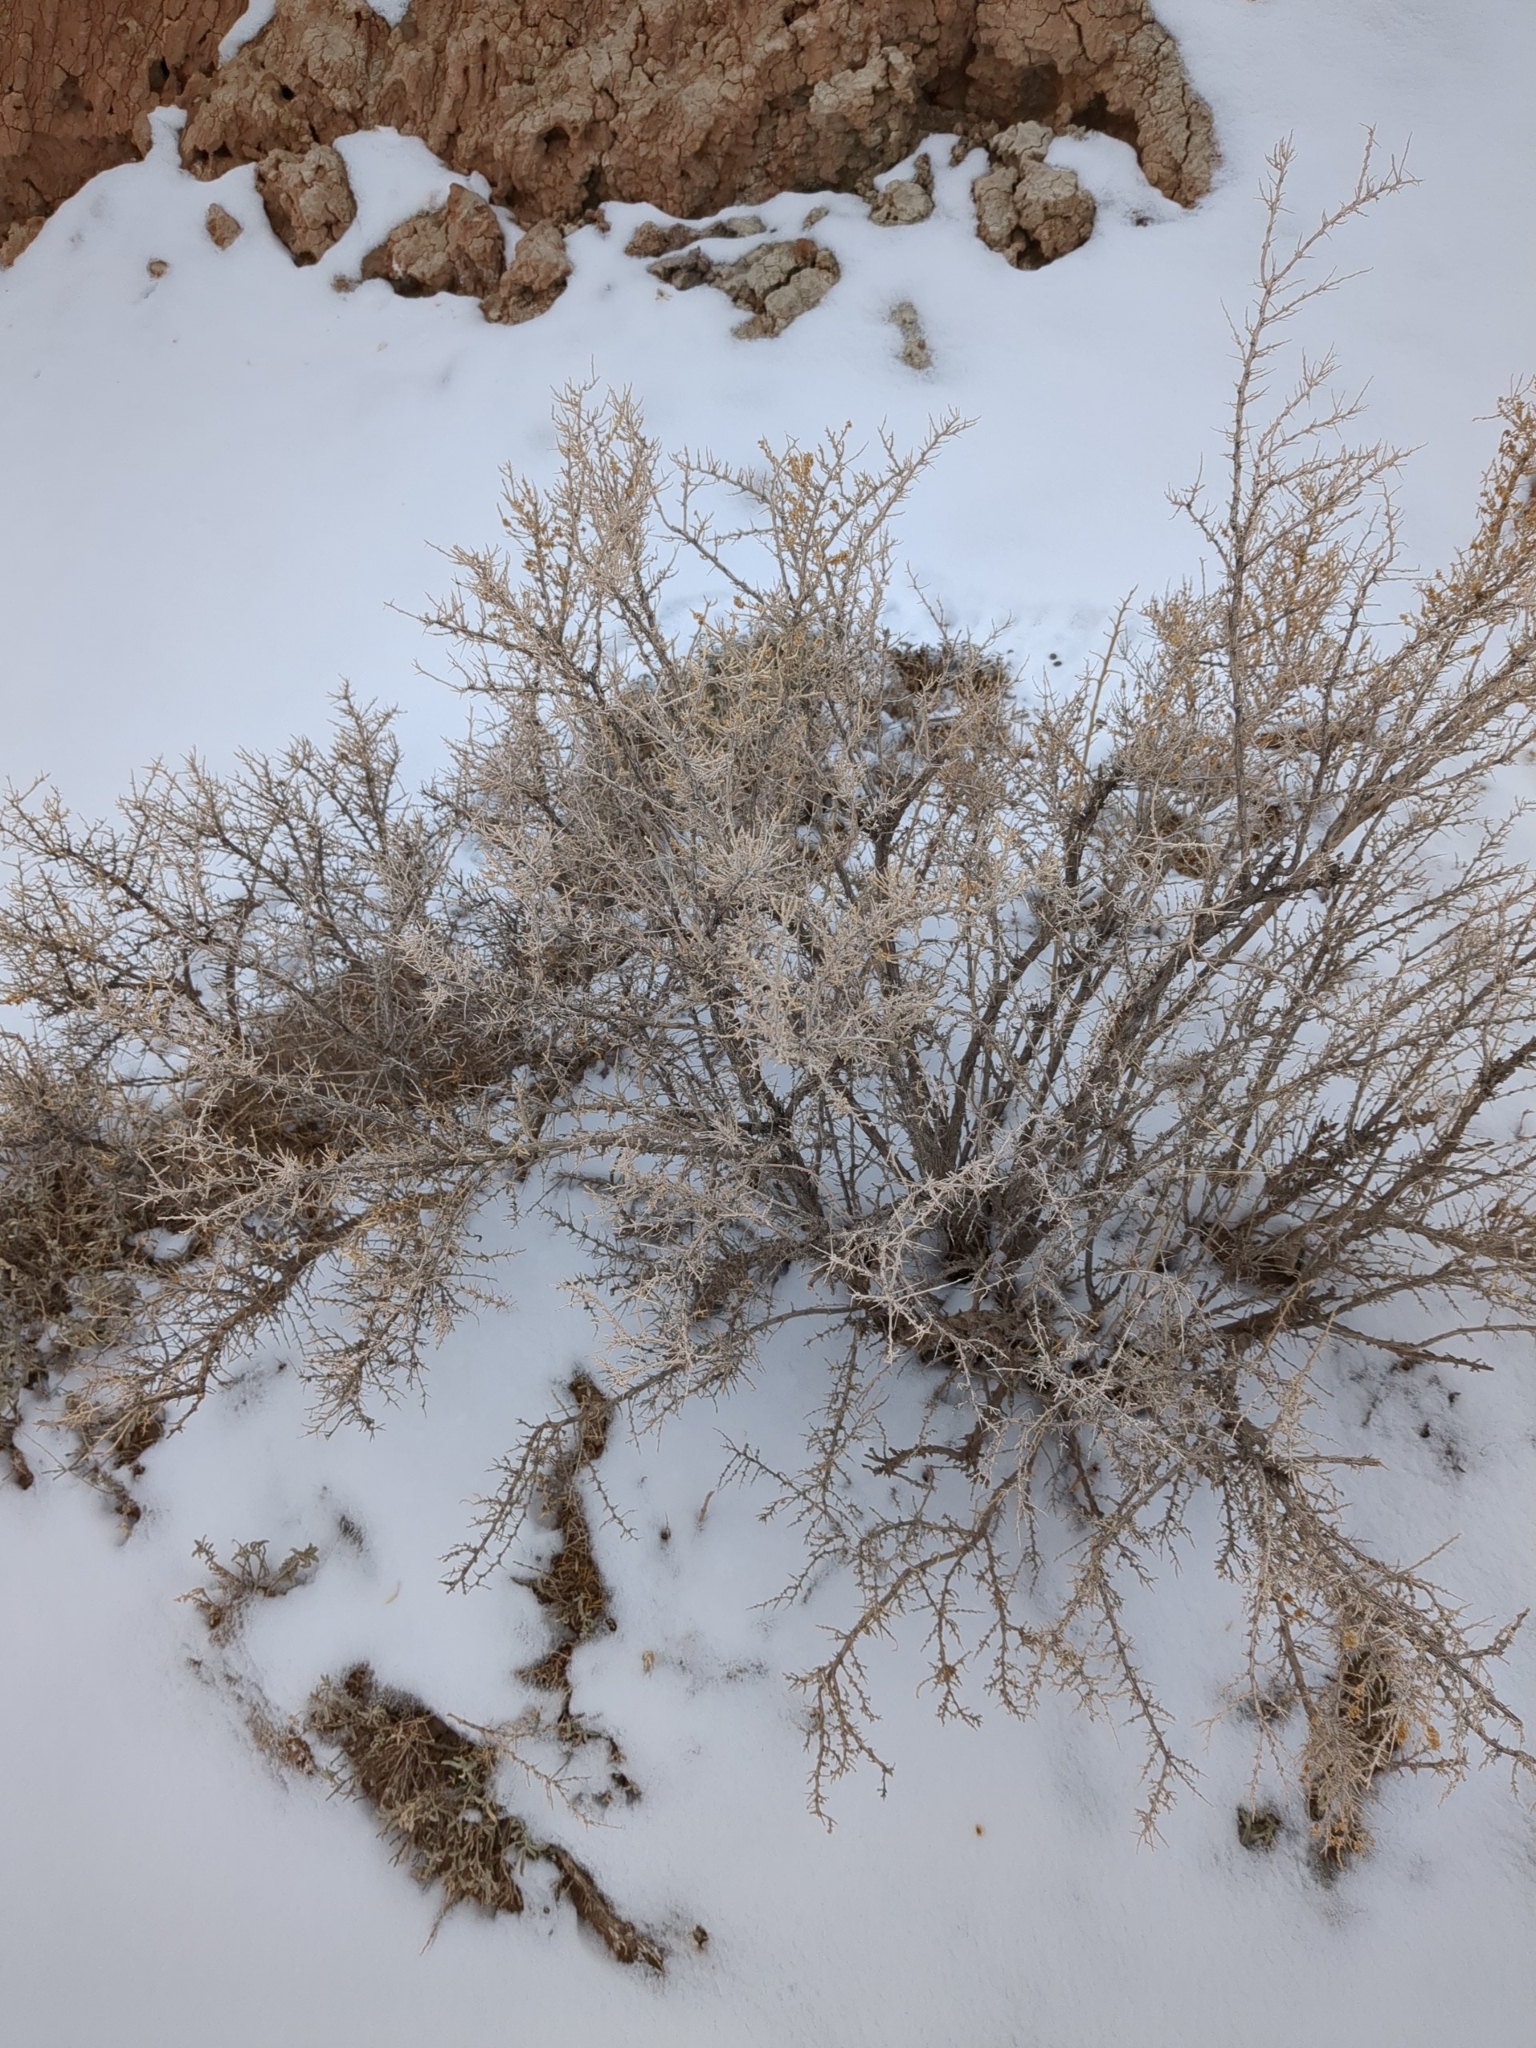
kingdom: Plantae
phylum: Tracheophyta
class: Magnoliopsida
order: Caryophyllales
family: Sarcobataceae
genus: Sarcobatus
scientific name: Sarcobatus vermiculatus
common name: Greasewood
